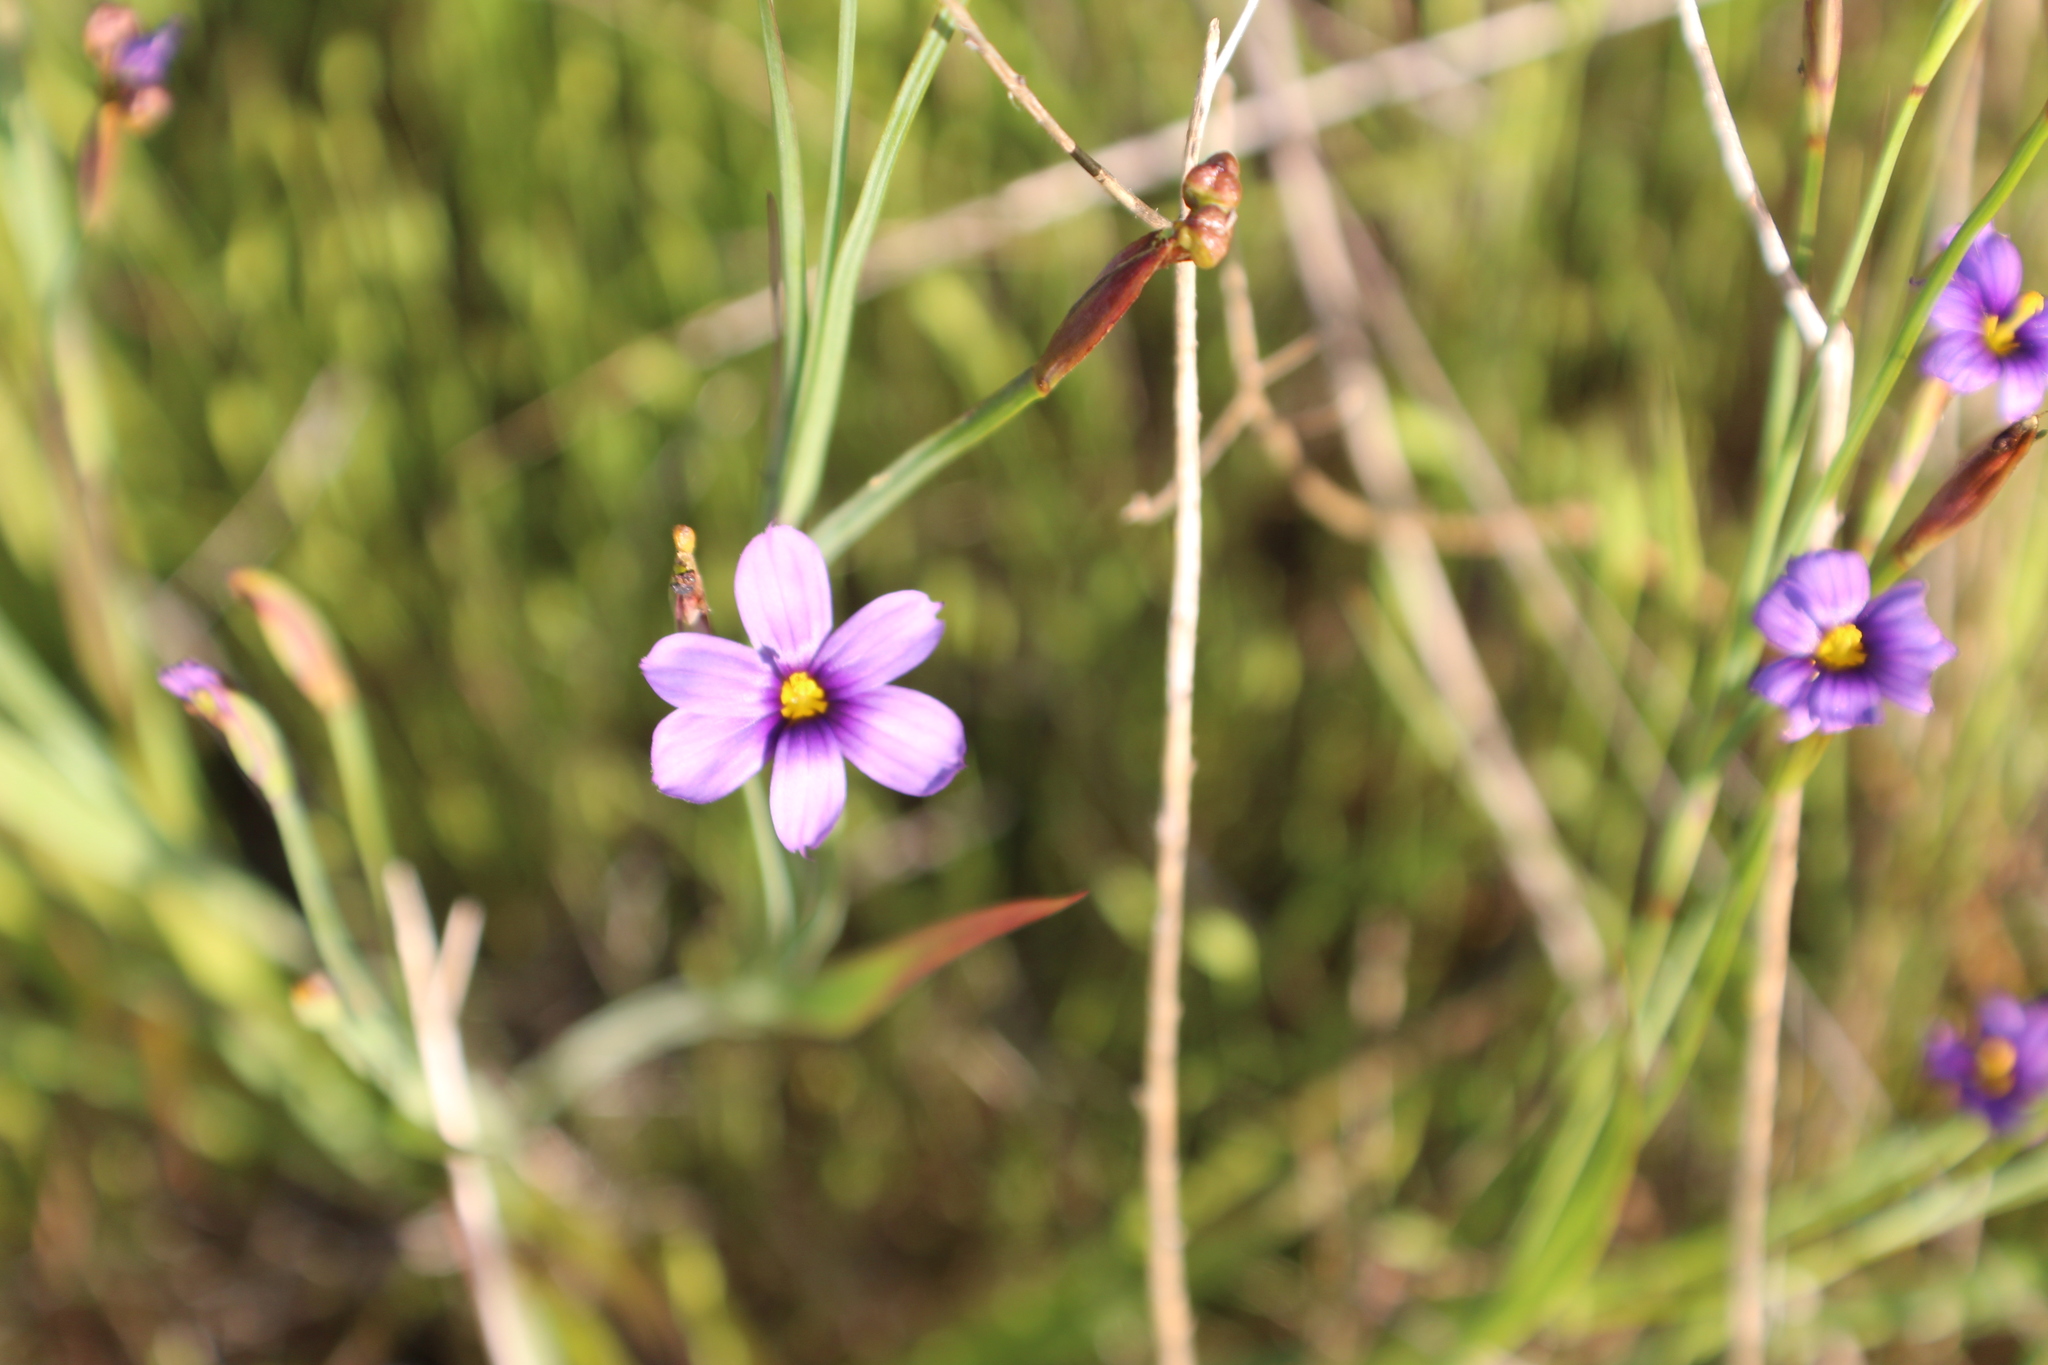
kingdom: Plantae
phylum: Tracheophyta
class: Liliopsida
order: Asparagales
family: Iridaceae
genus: Sisyrinchium
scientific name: Sisyrinchium bellum
